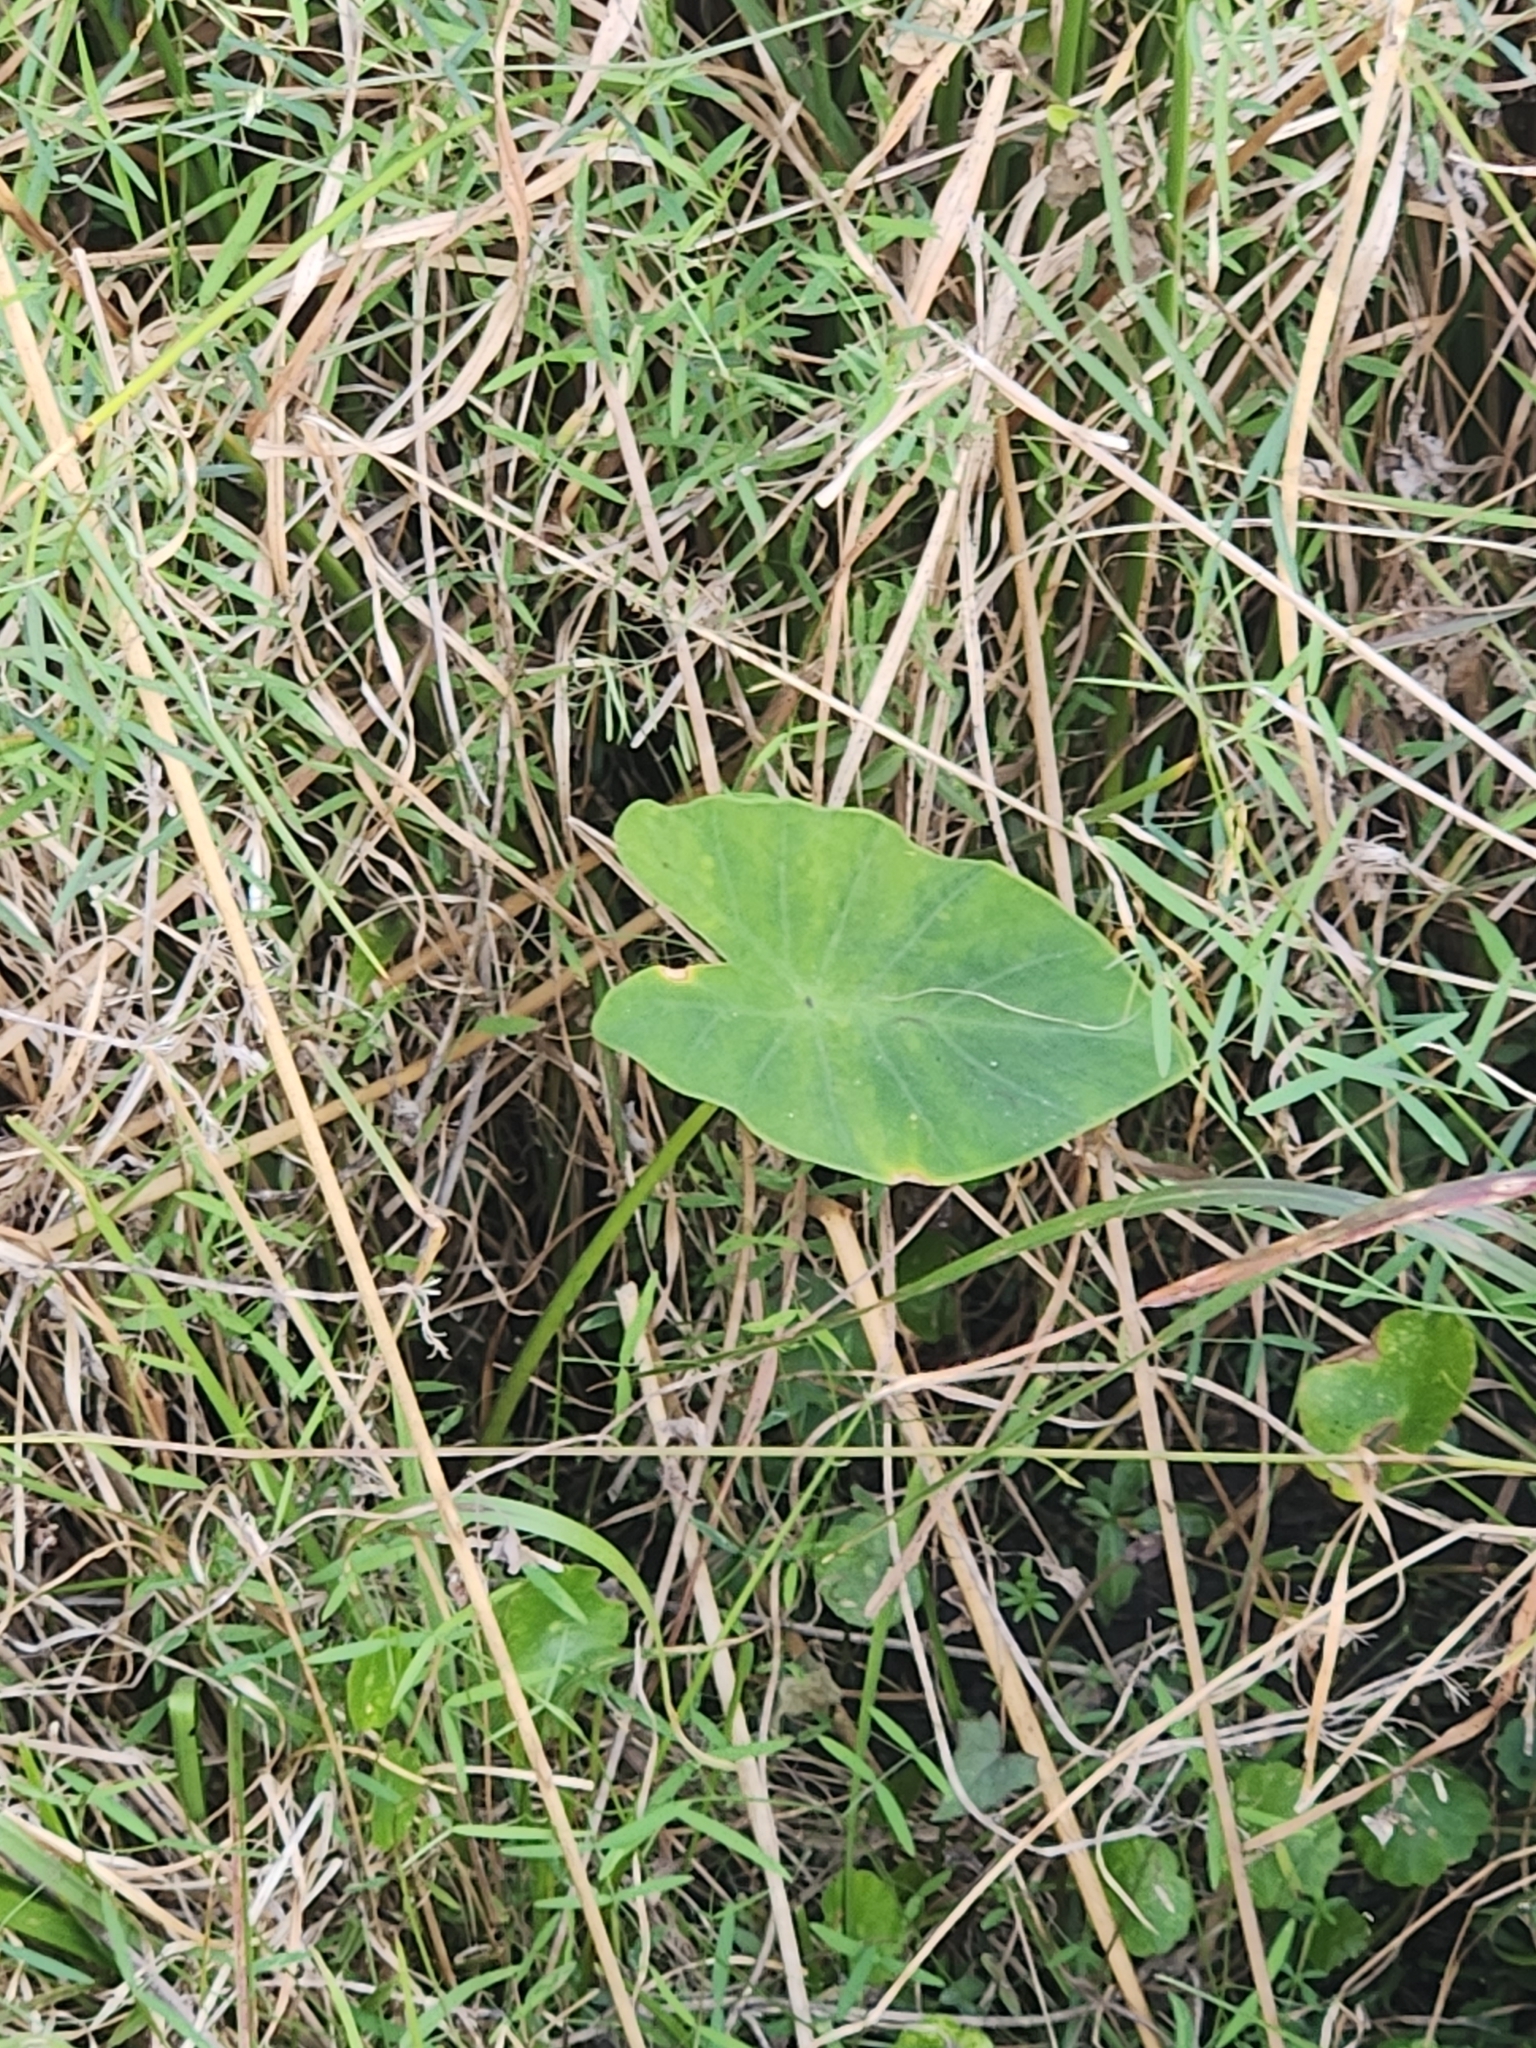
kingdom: Plantae
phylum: Tracheophyta
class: Liliopsida
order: Alismatales
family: Araceae
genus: Colocasia
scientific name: Colocasia esculenta
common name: Taro
